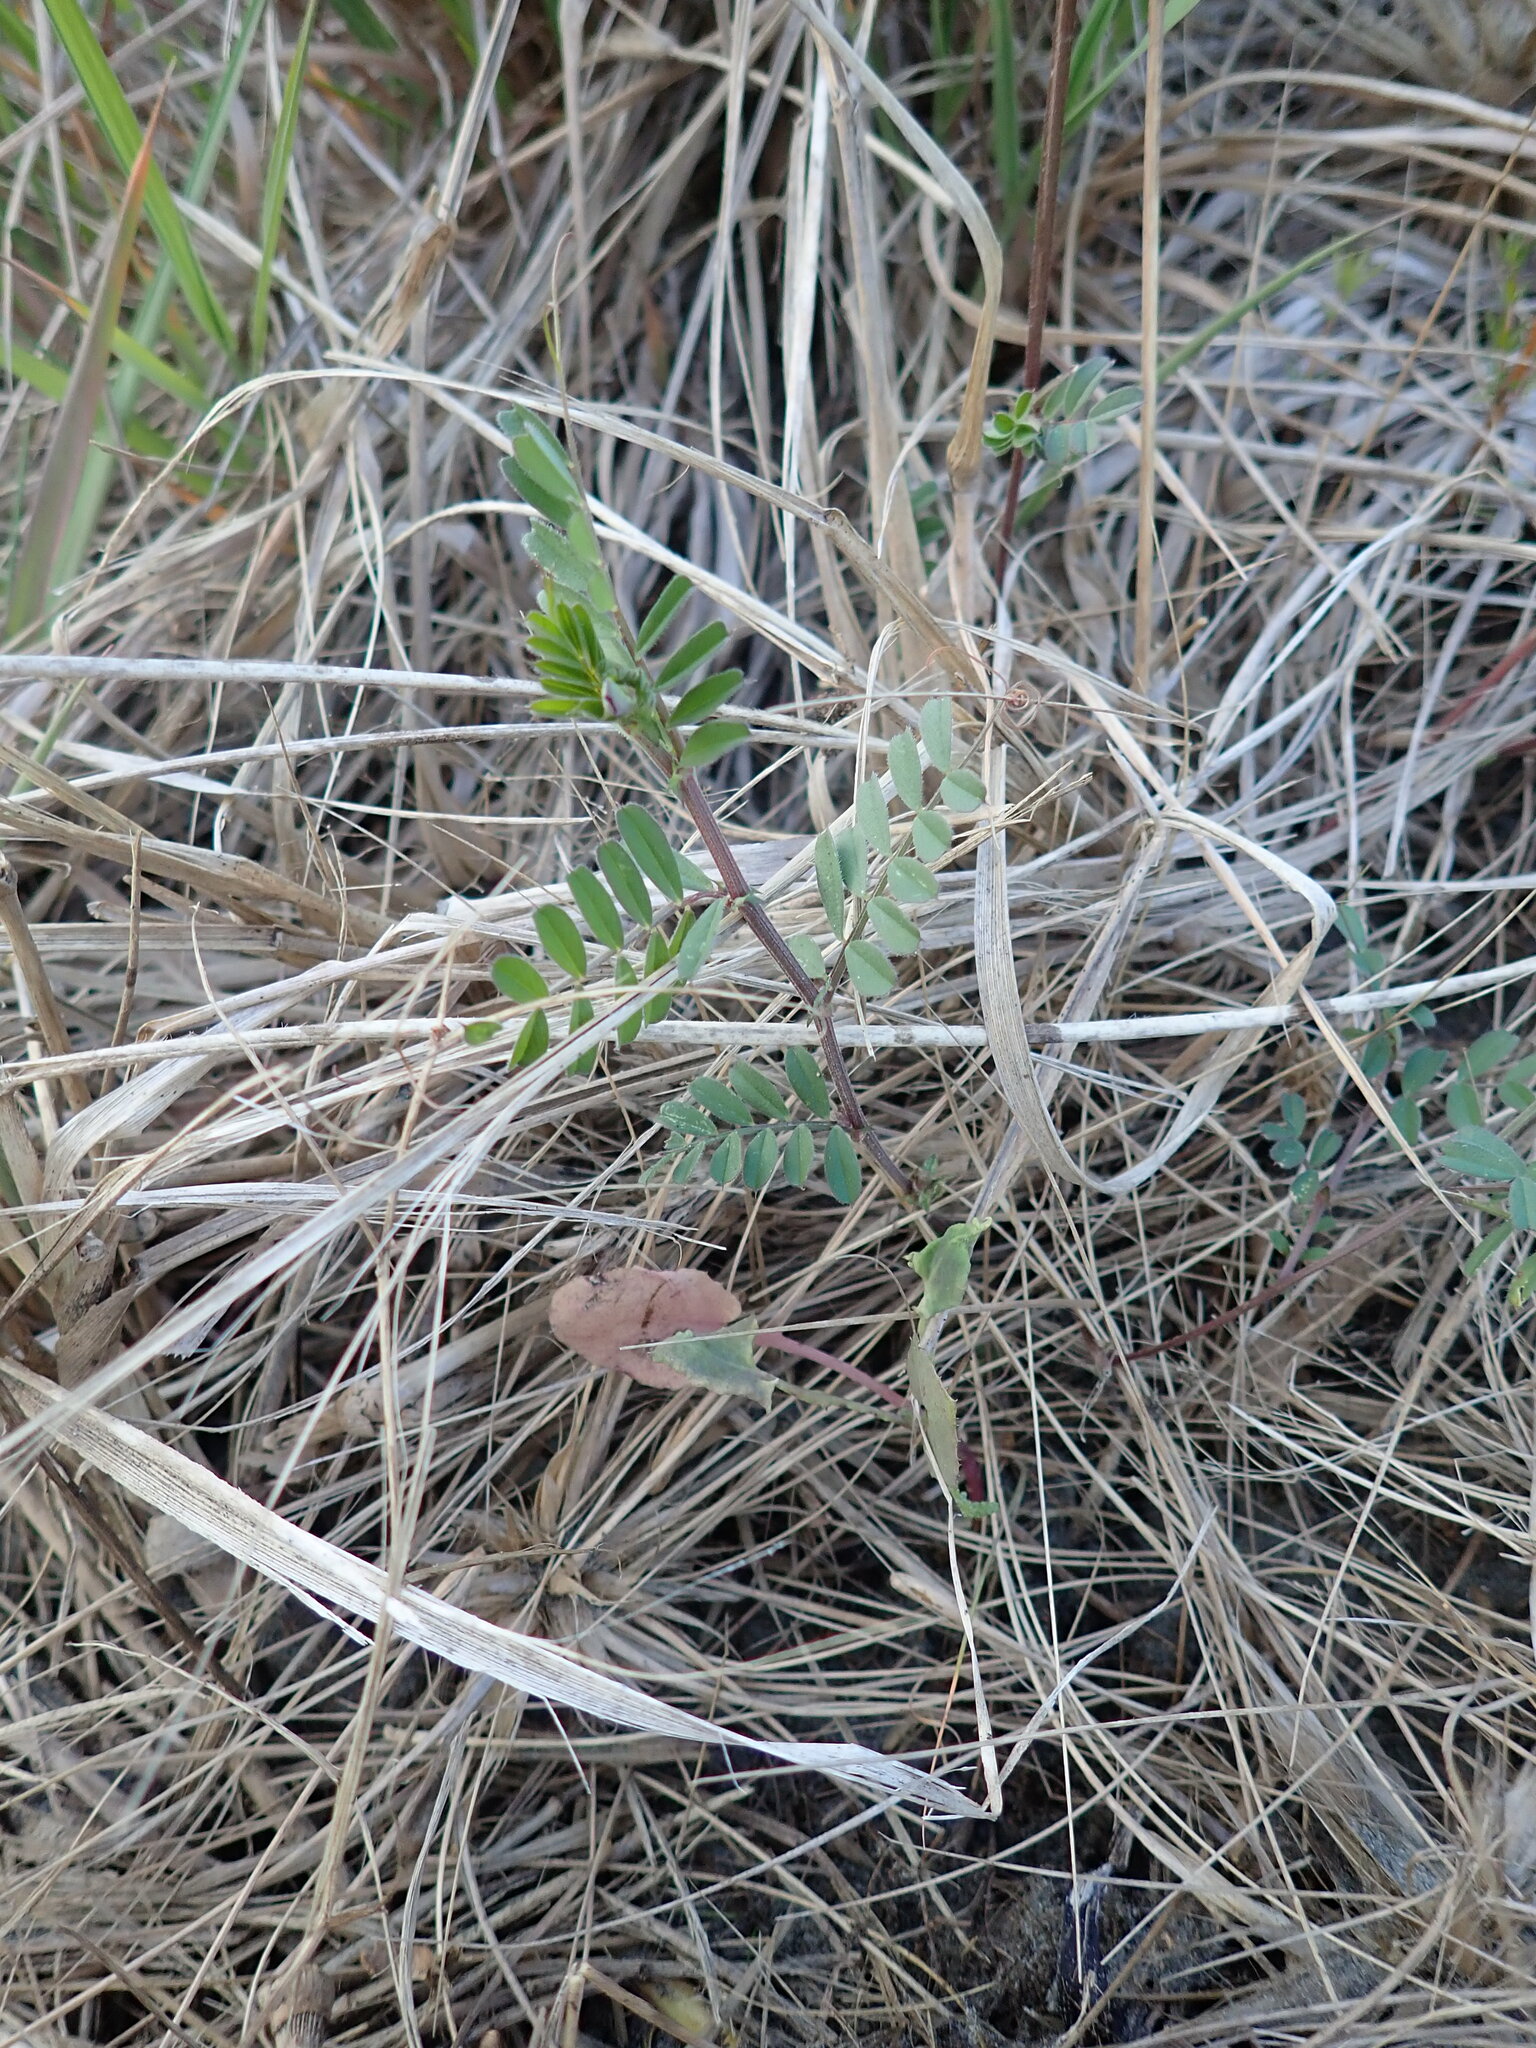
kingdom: Plantae
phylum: Tracheophyta
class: Magnoliopsida
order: Fabales
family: Fabaceae
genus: Vicia
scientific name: Vicia sativa
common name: Garden vetch
